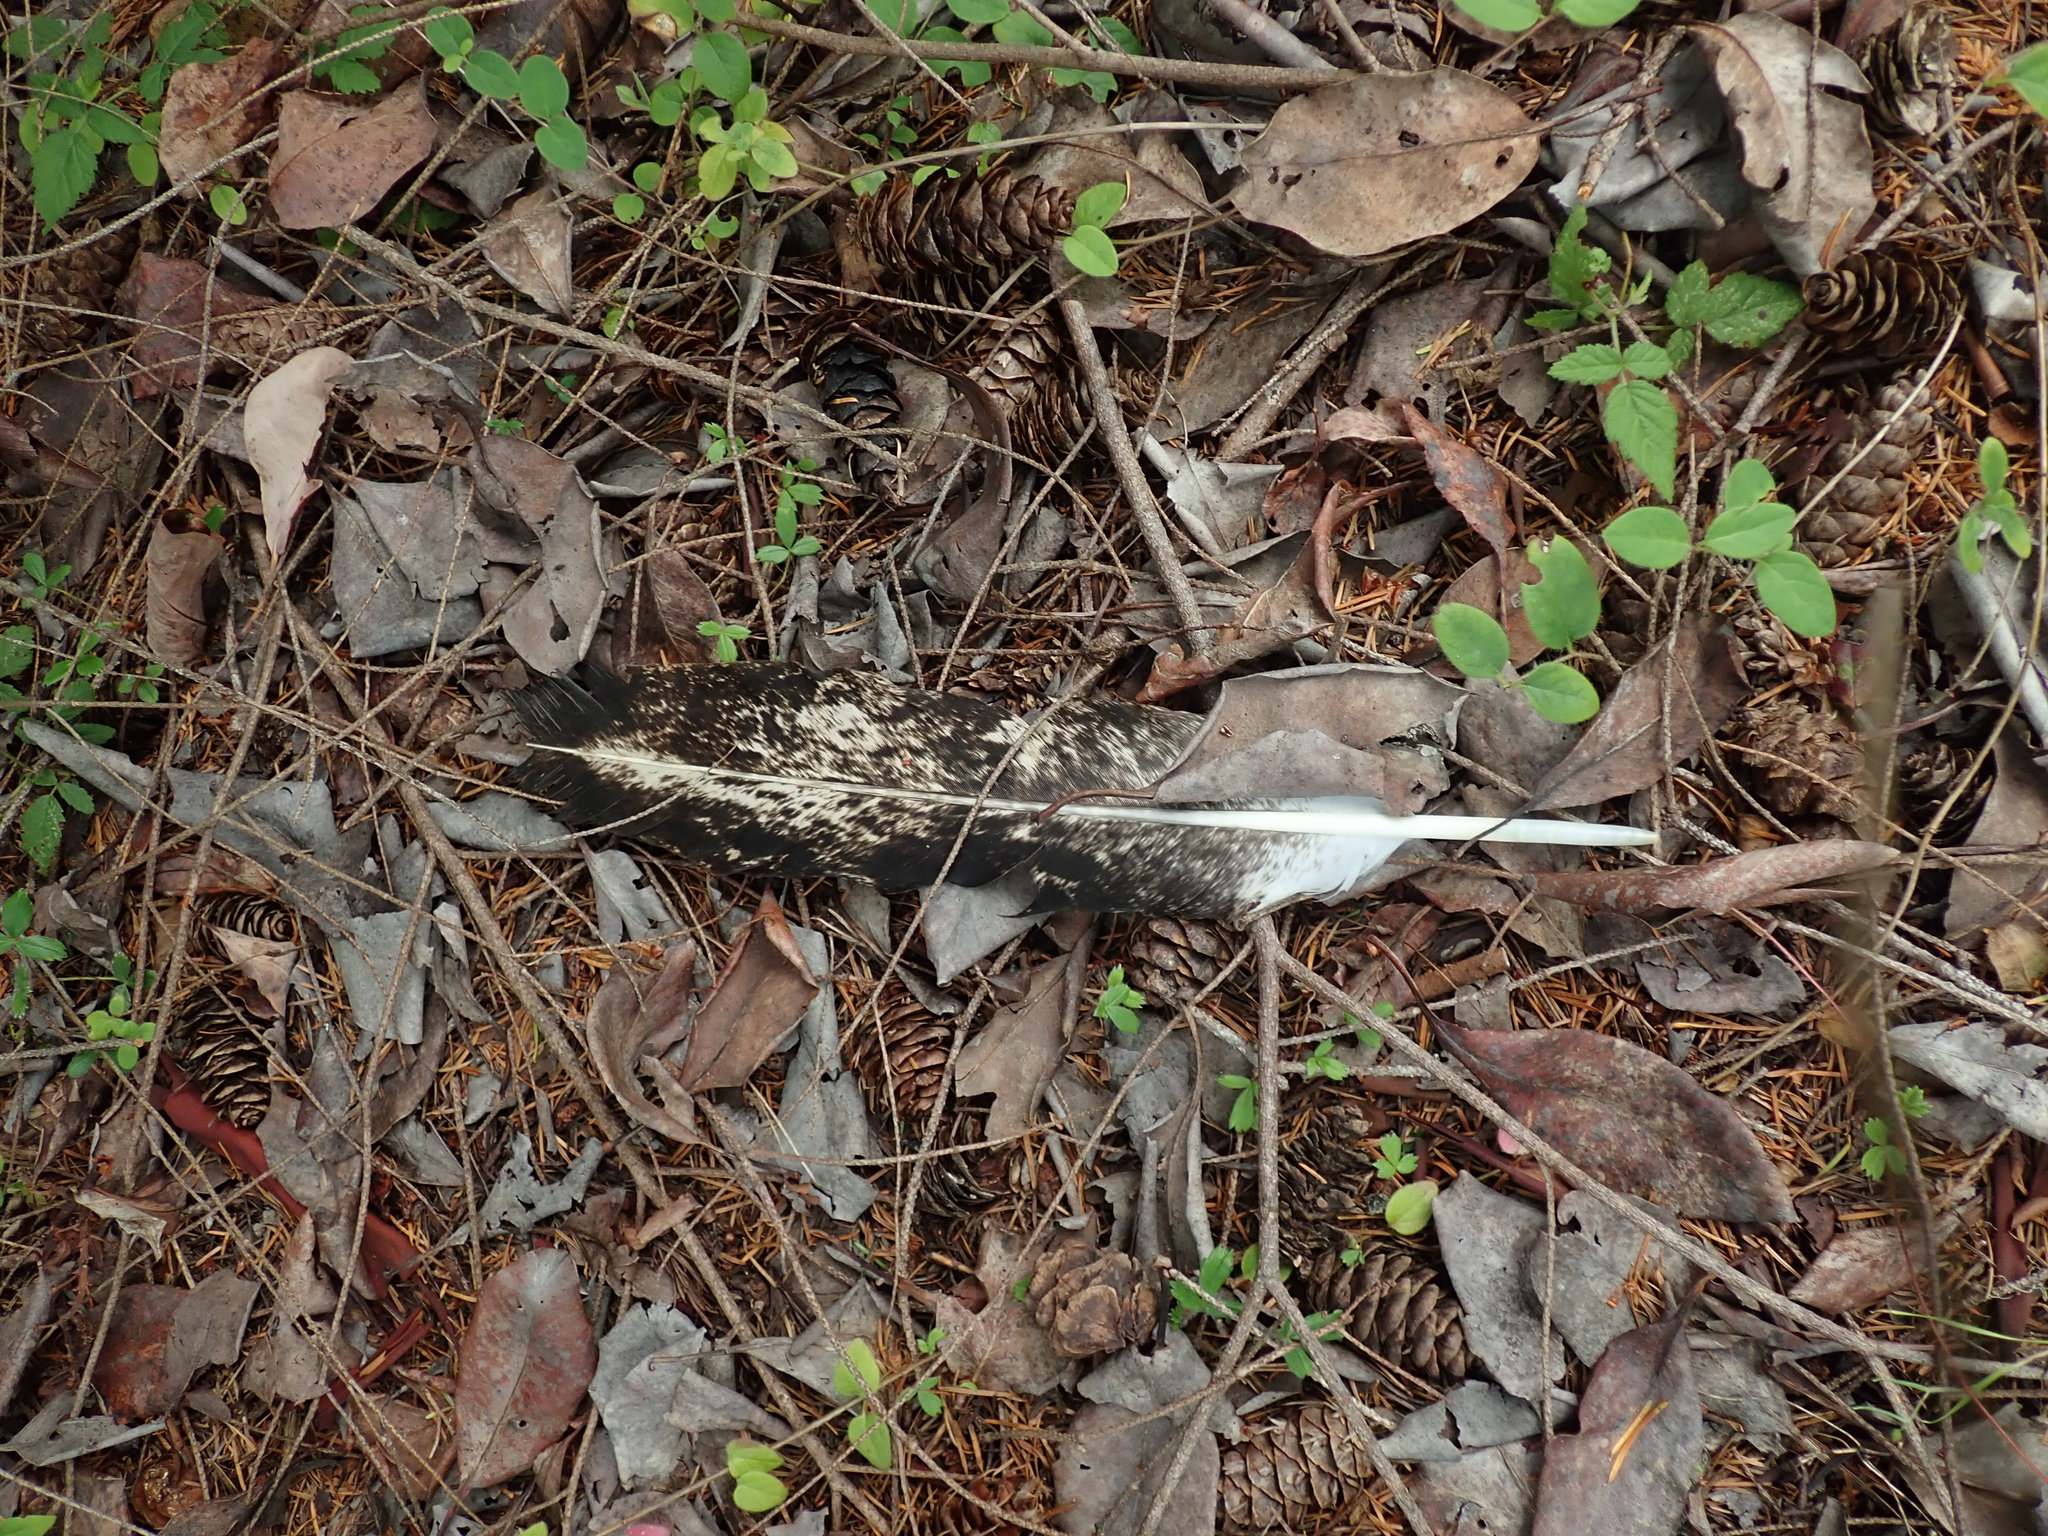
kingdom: Animalia
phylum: Chordata
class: Aves
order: Accipitriformes
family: Accipitridae
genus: Haliaeetus
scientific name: Haliaeetus leucocephalus
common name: Bald eagle
